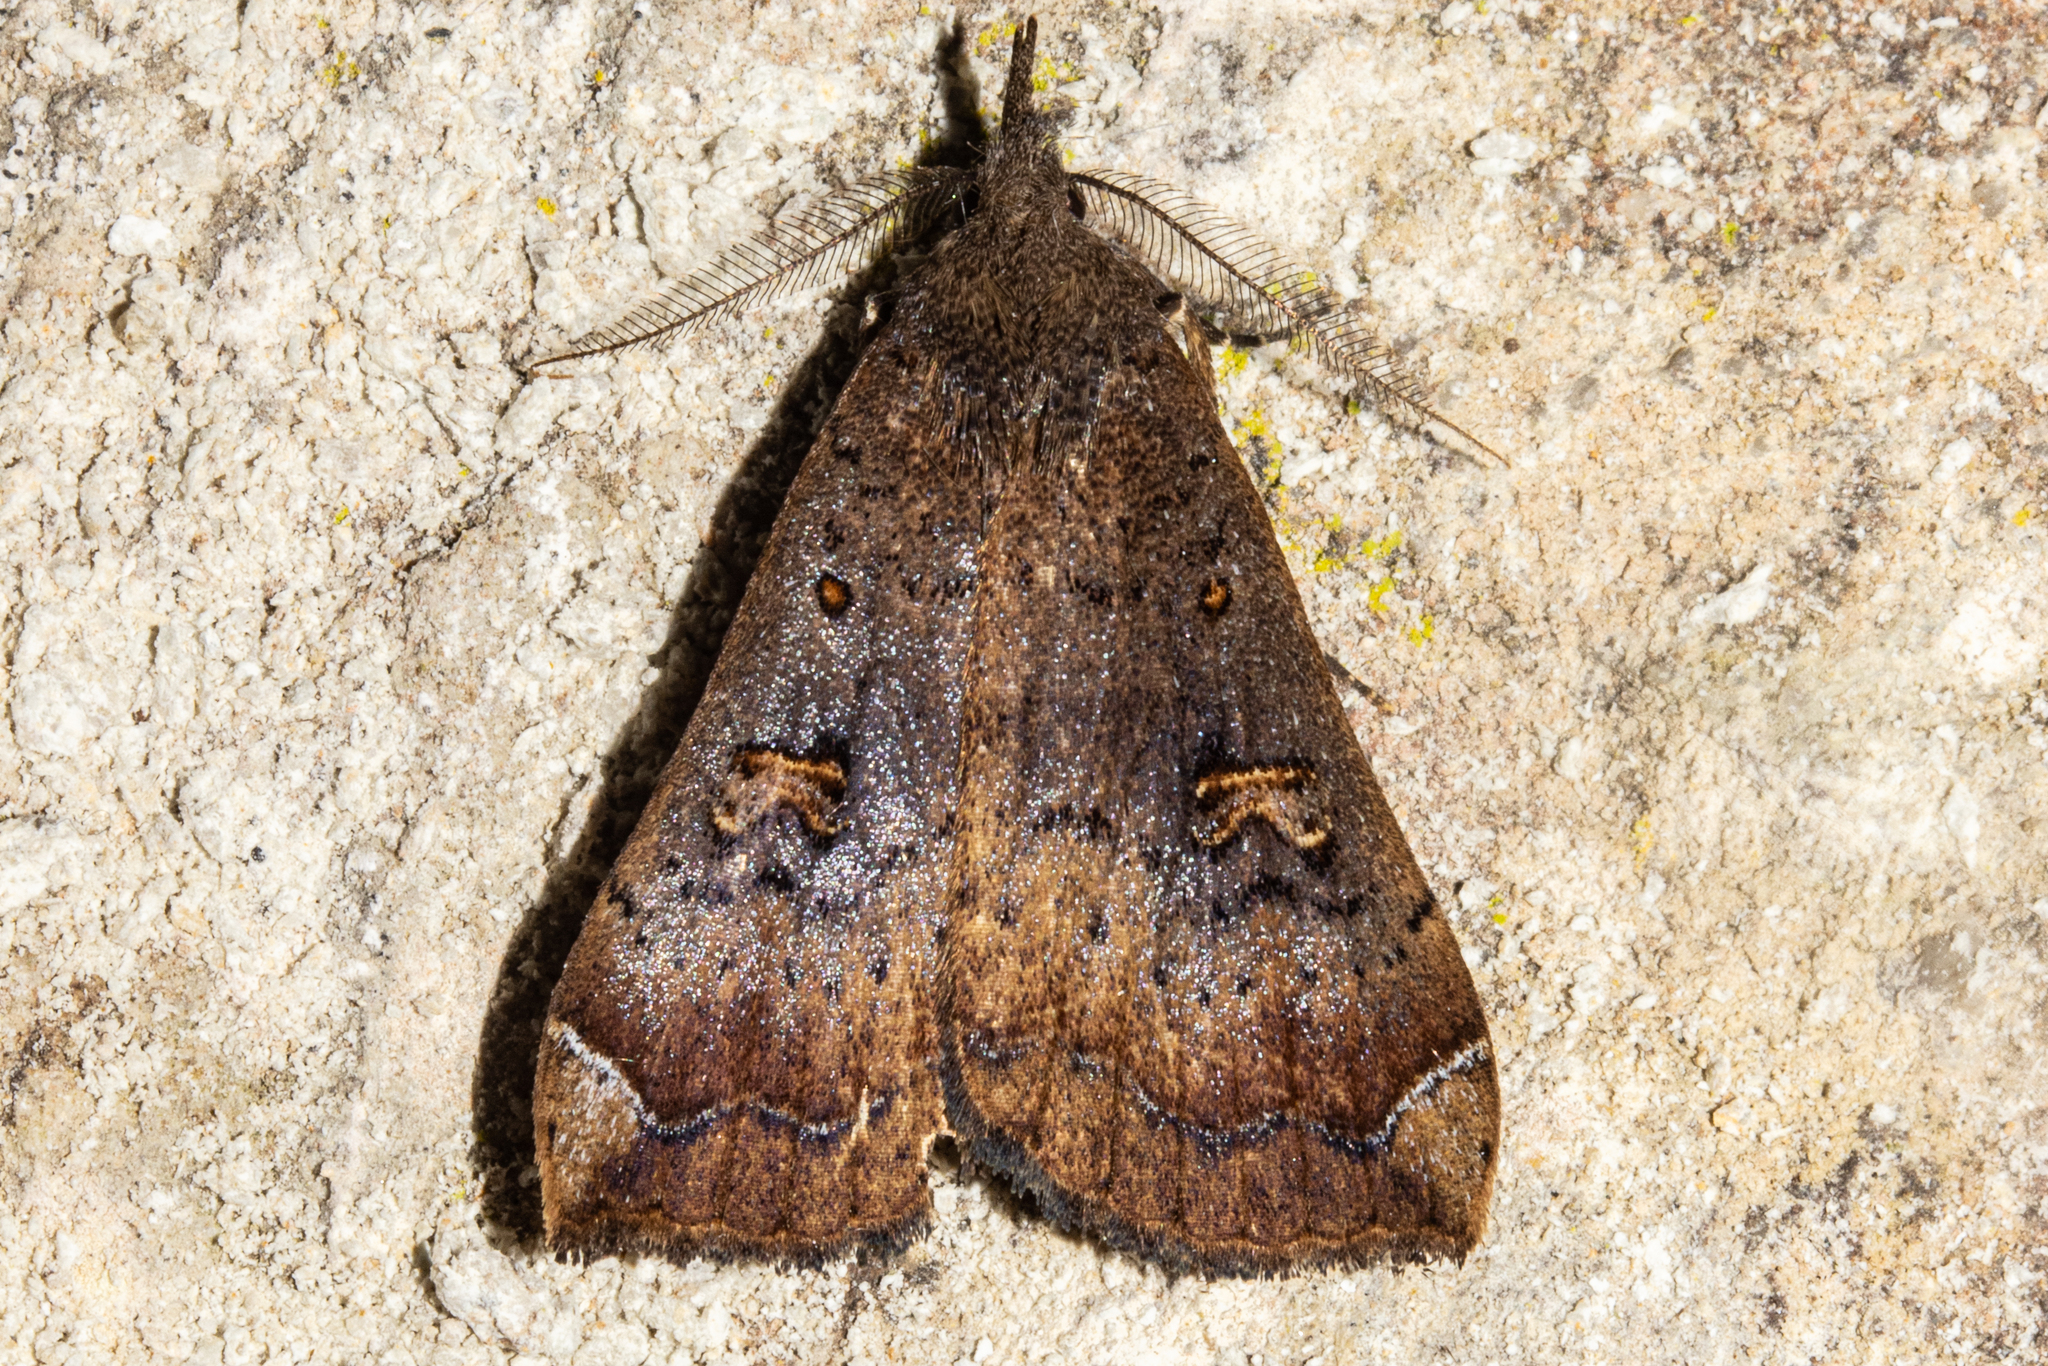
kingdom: Animalia
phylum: Arthropoda
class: Insecta
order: Lepidoptera
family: Erebidae
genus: Rhapsa
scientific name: Rhapsa scotosialis
